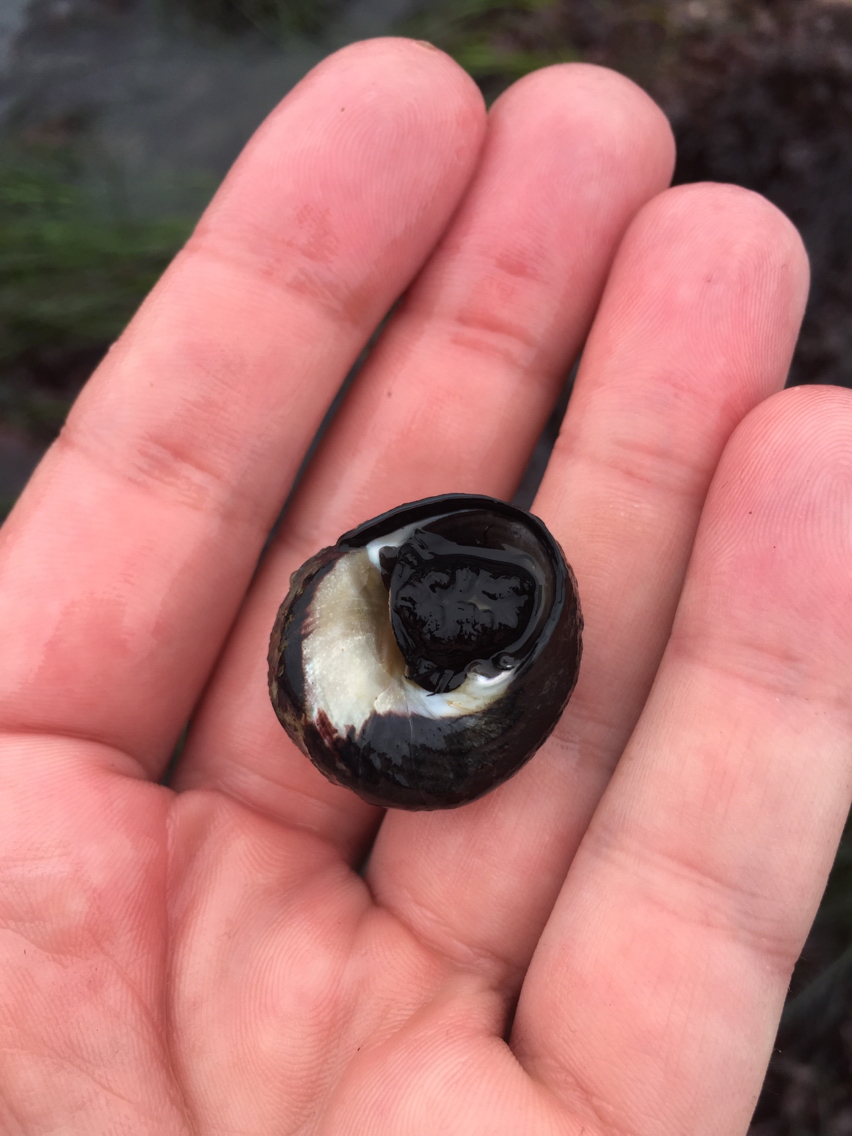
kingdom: Animalia
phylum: Mollusca
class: Gastropoda
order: Trochida
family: Tegulidae
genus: Tegula
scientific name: Tegula funebralis
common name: Black tegula
